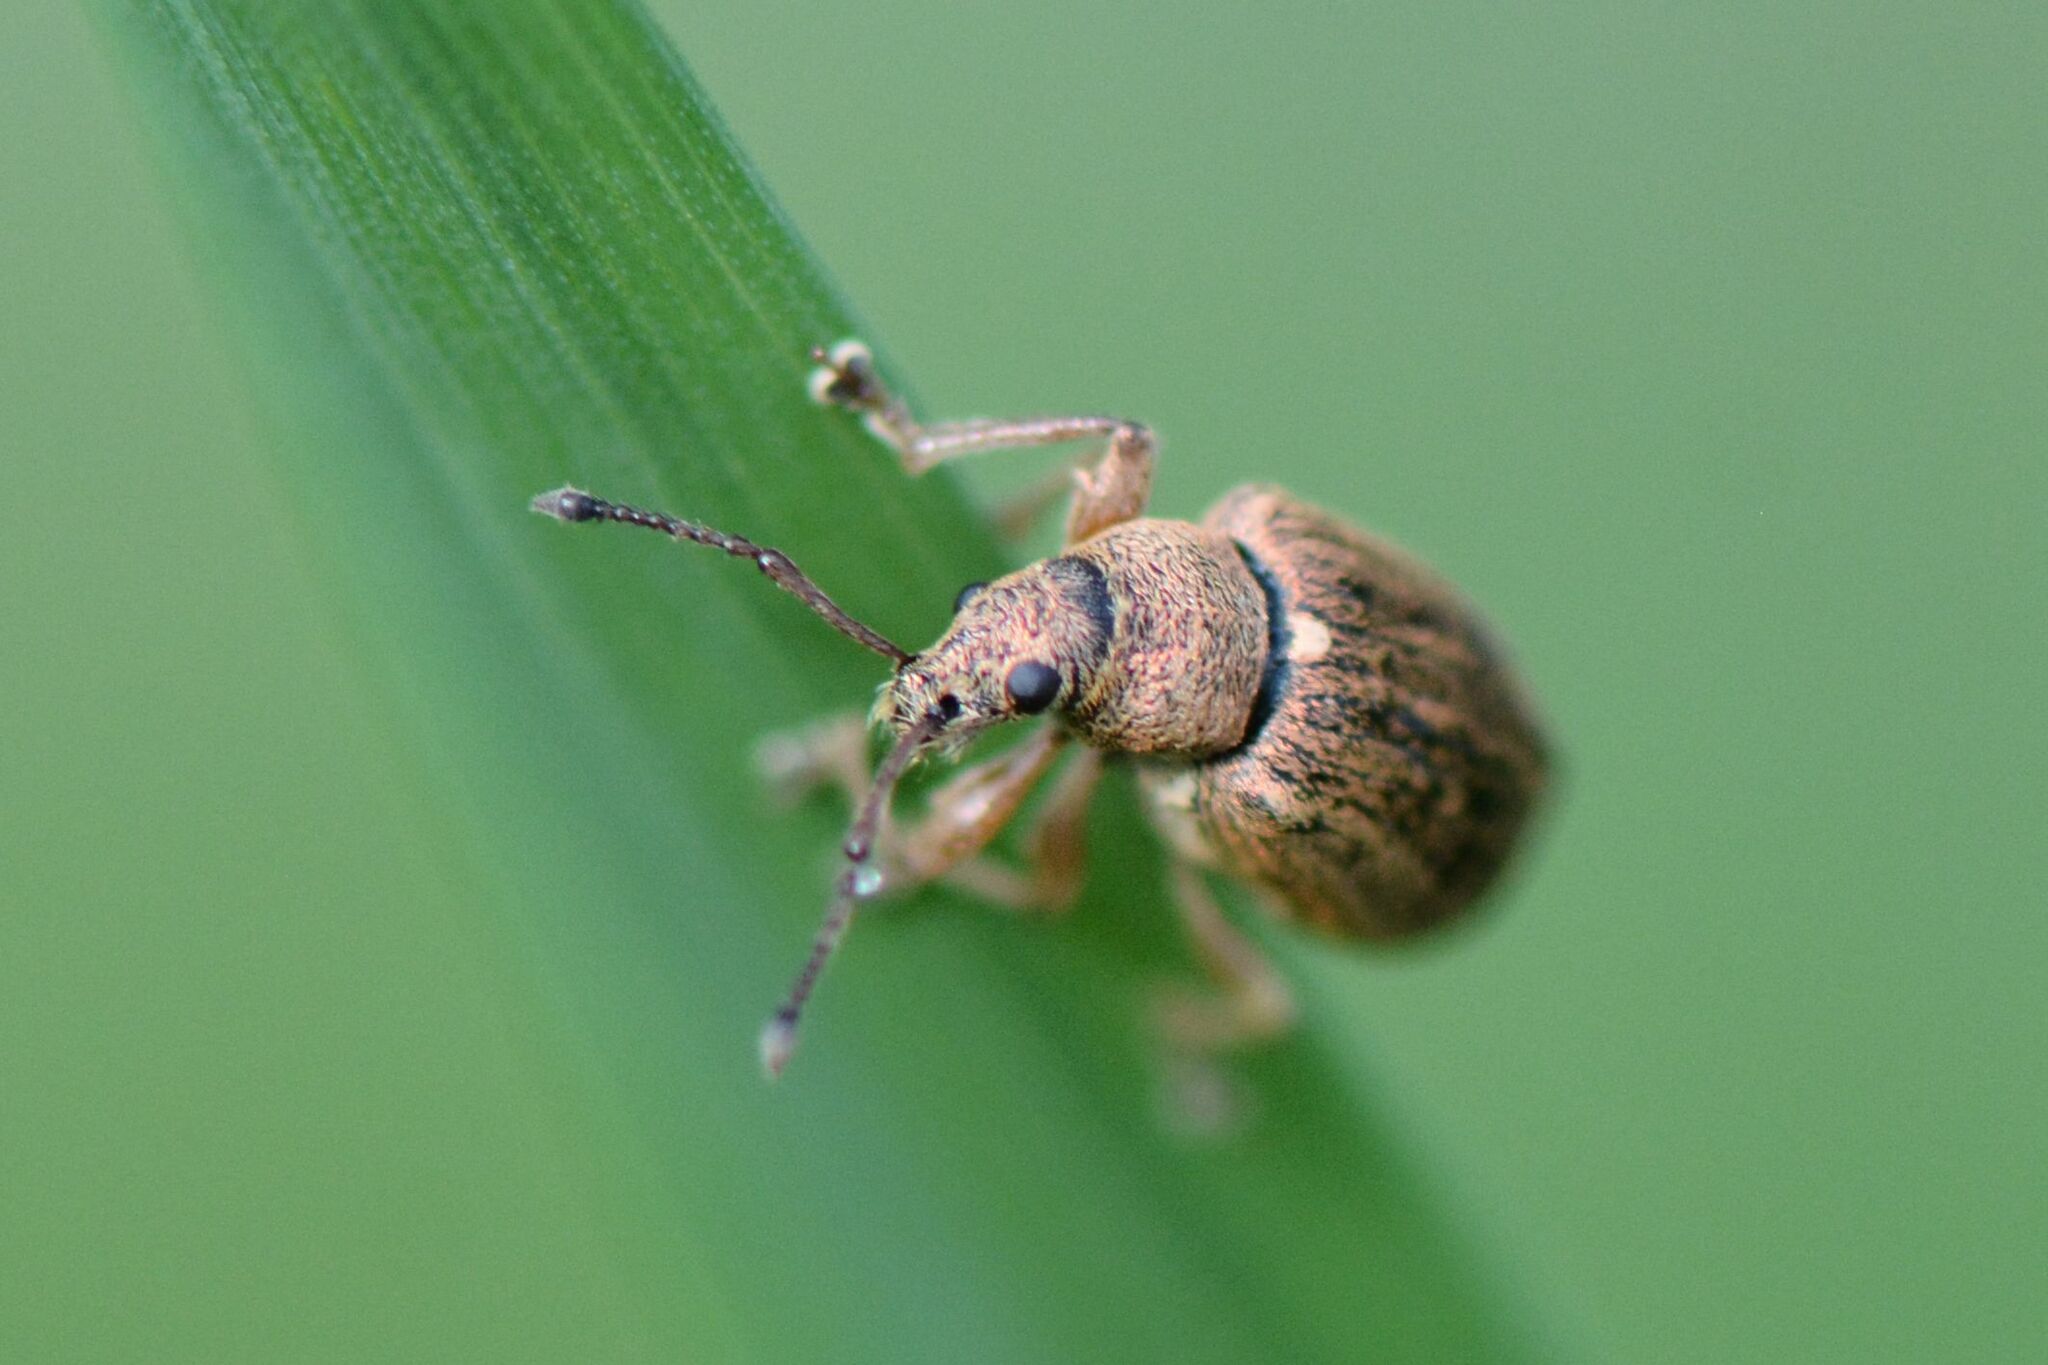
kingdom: Animalia
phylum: Arthropoda
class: Insecta
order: Coleoptera
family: Curculionidae
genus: Phyllobius
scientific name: Phyllobius pyri
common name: Common leaf weevil
